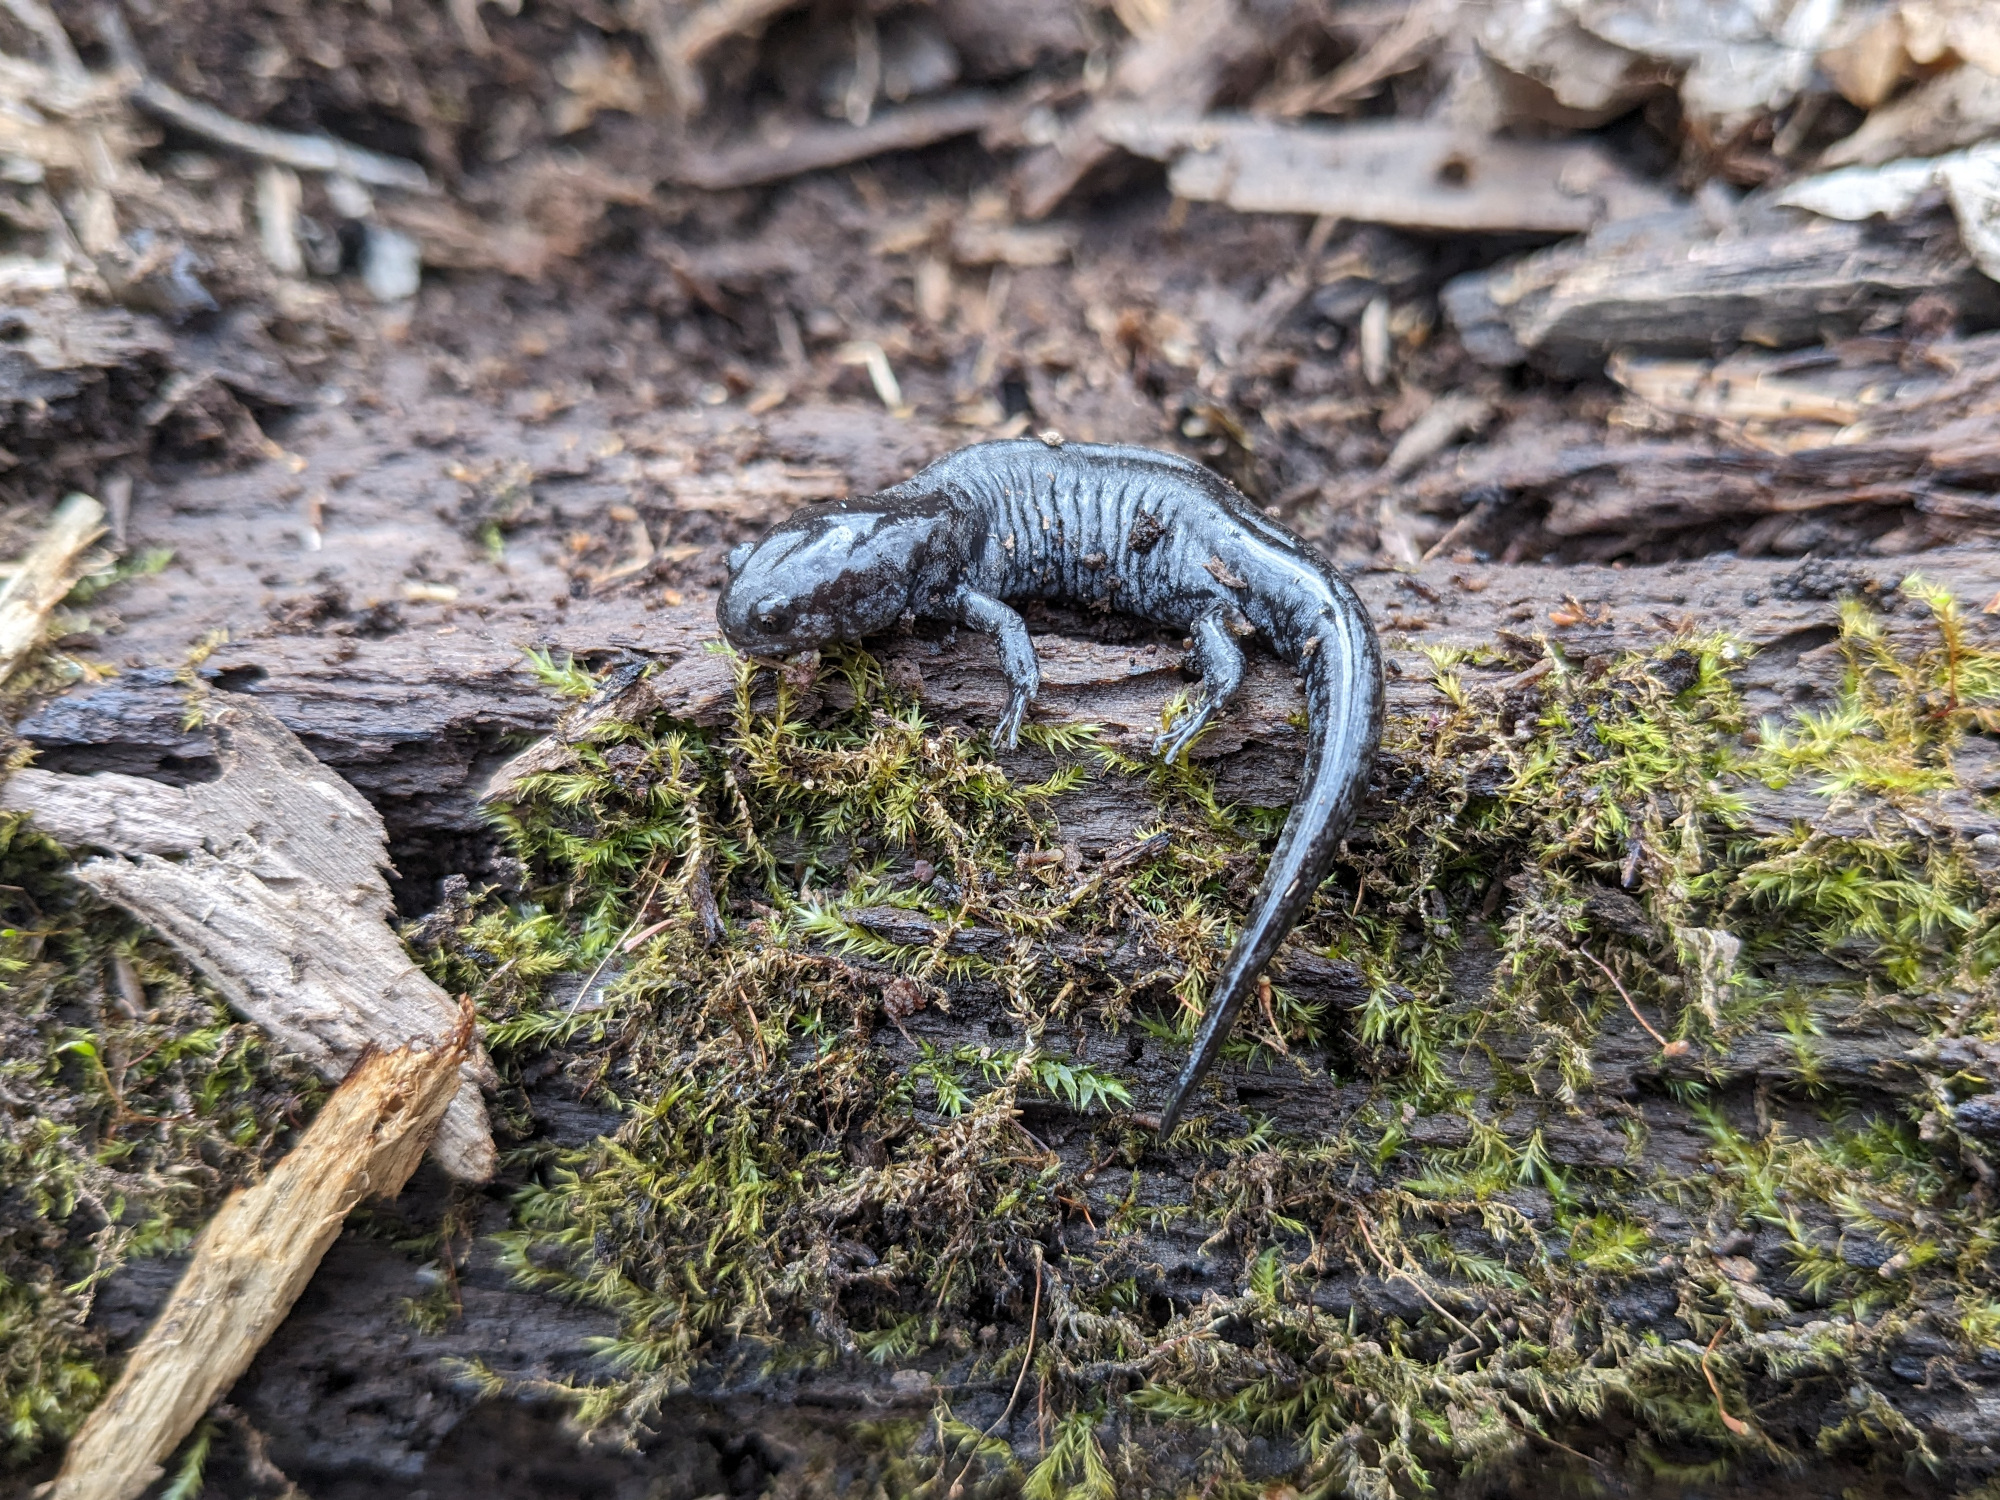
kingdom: Animalia
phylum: Chordata
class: Amphibia
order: Caudata
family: Ambystomatidae
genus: Ambystoma
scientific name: Ambystoma texanum
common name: Small-mouth salamander
